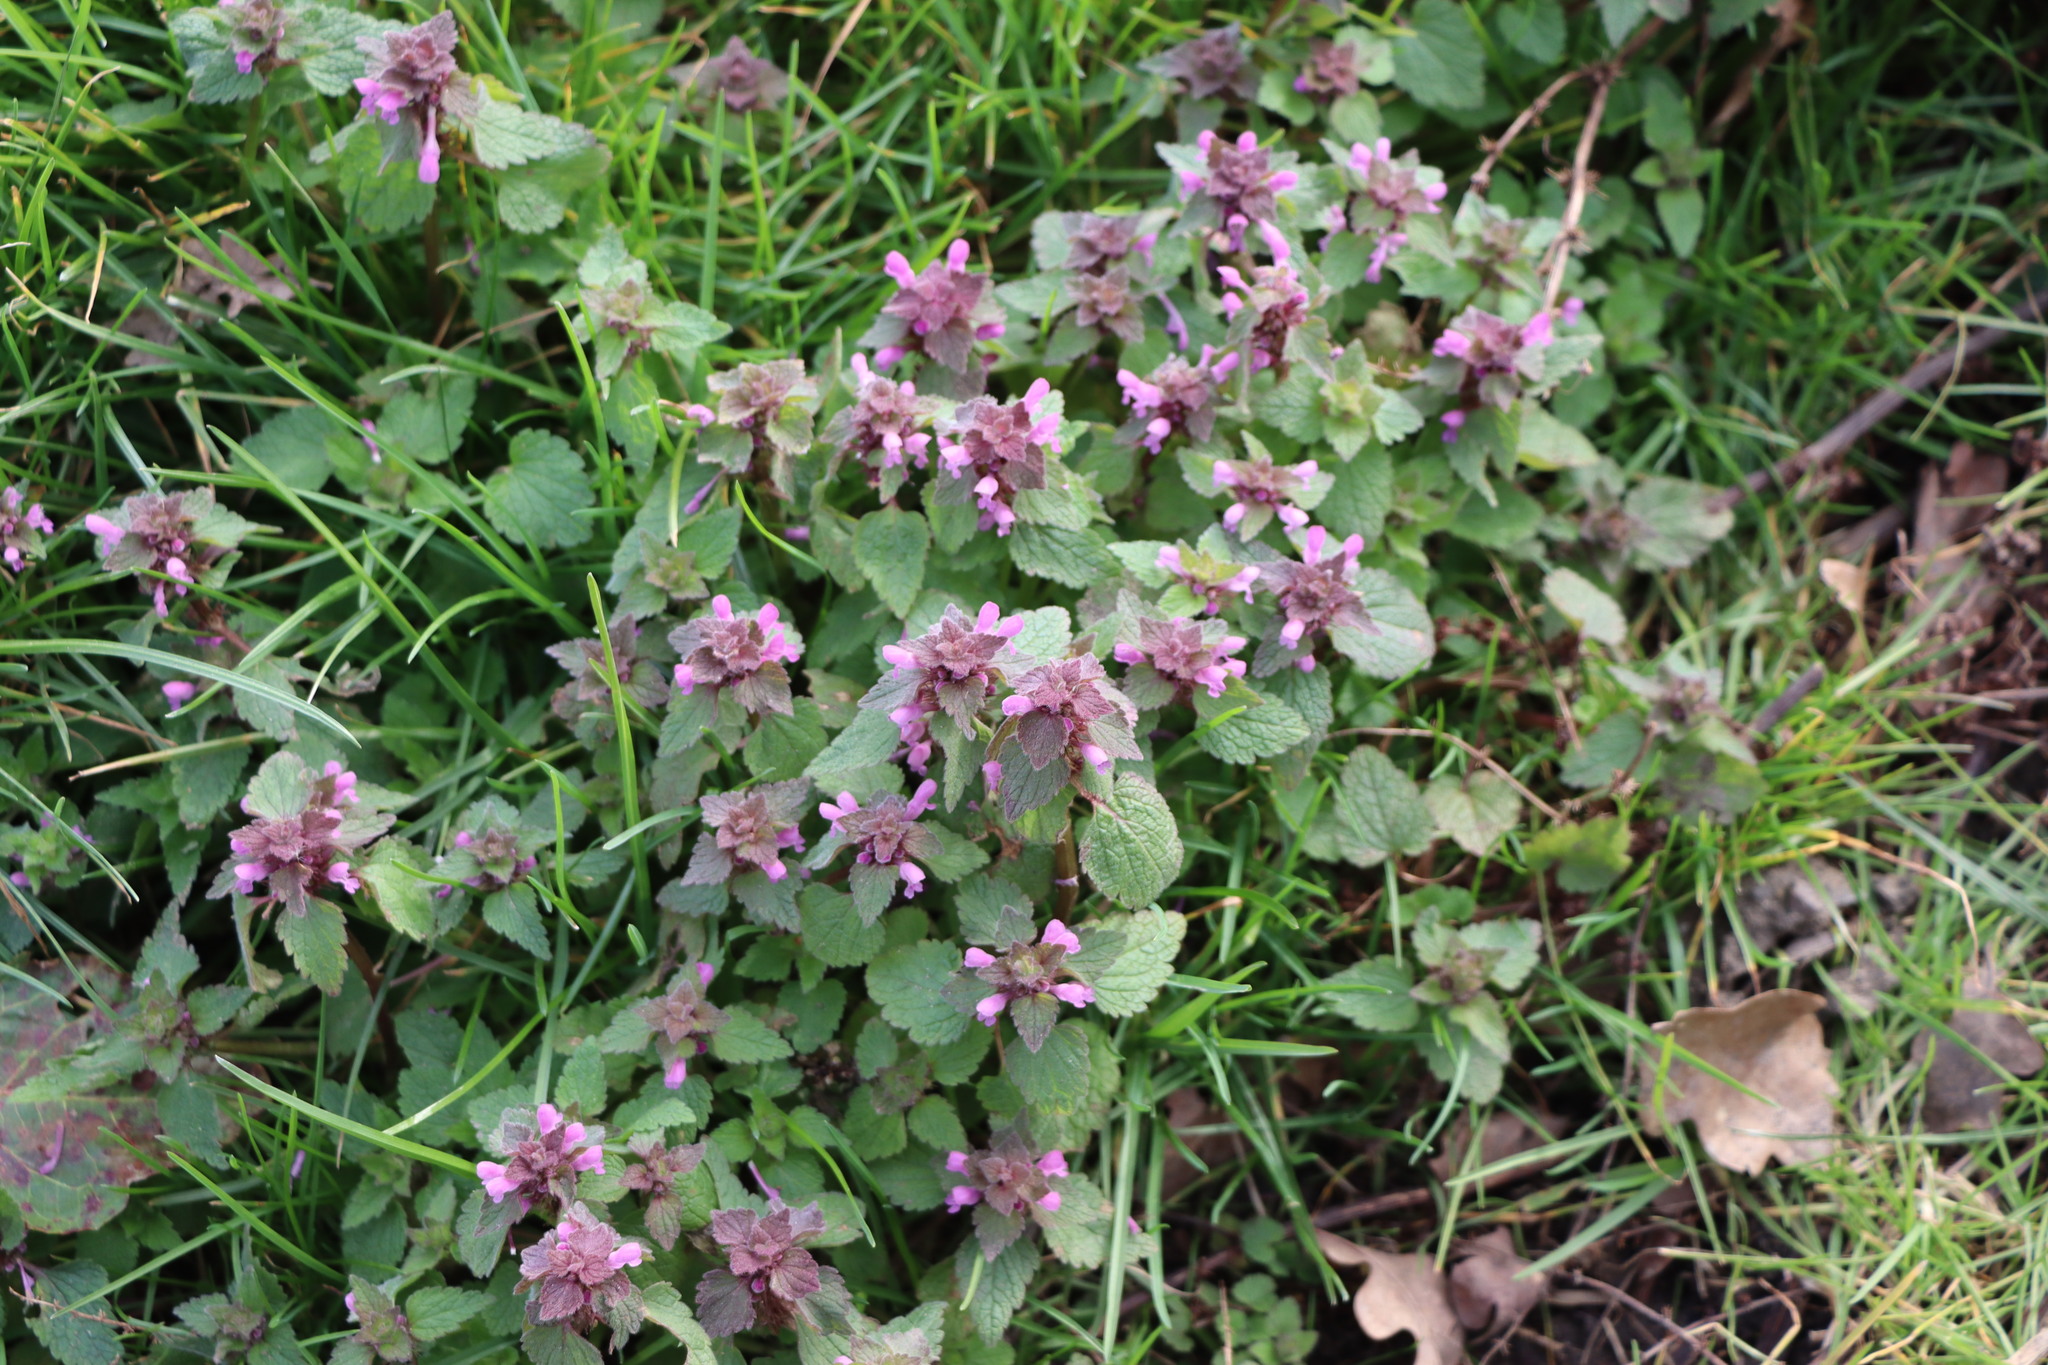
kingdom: Plantae
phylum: Tracheophyta
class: Magnoliopsida
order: Lamiales
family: Lamiaceae
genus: Lamium
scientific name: Lamium purpureum
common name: Red dead-nettle
